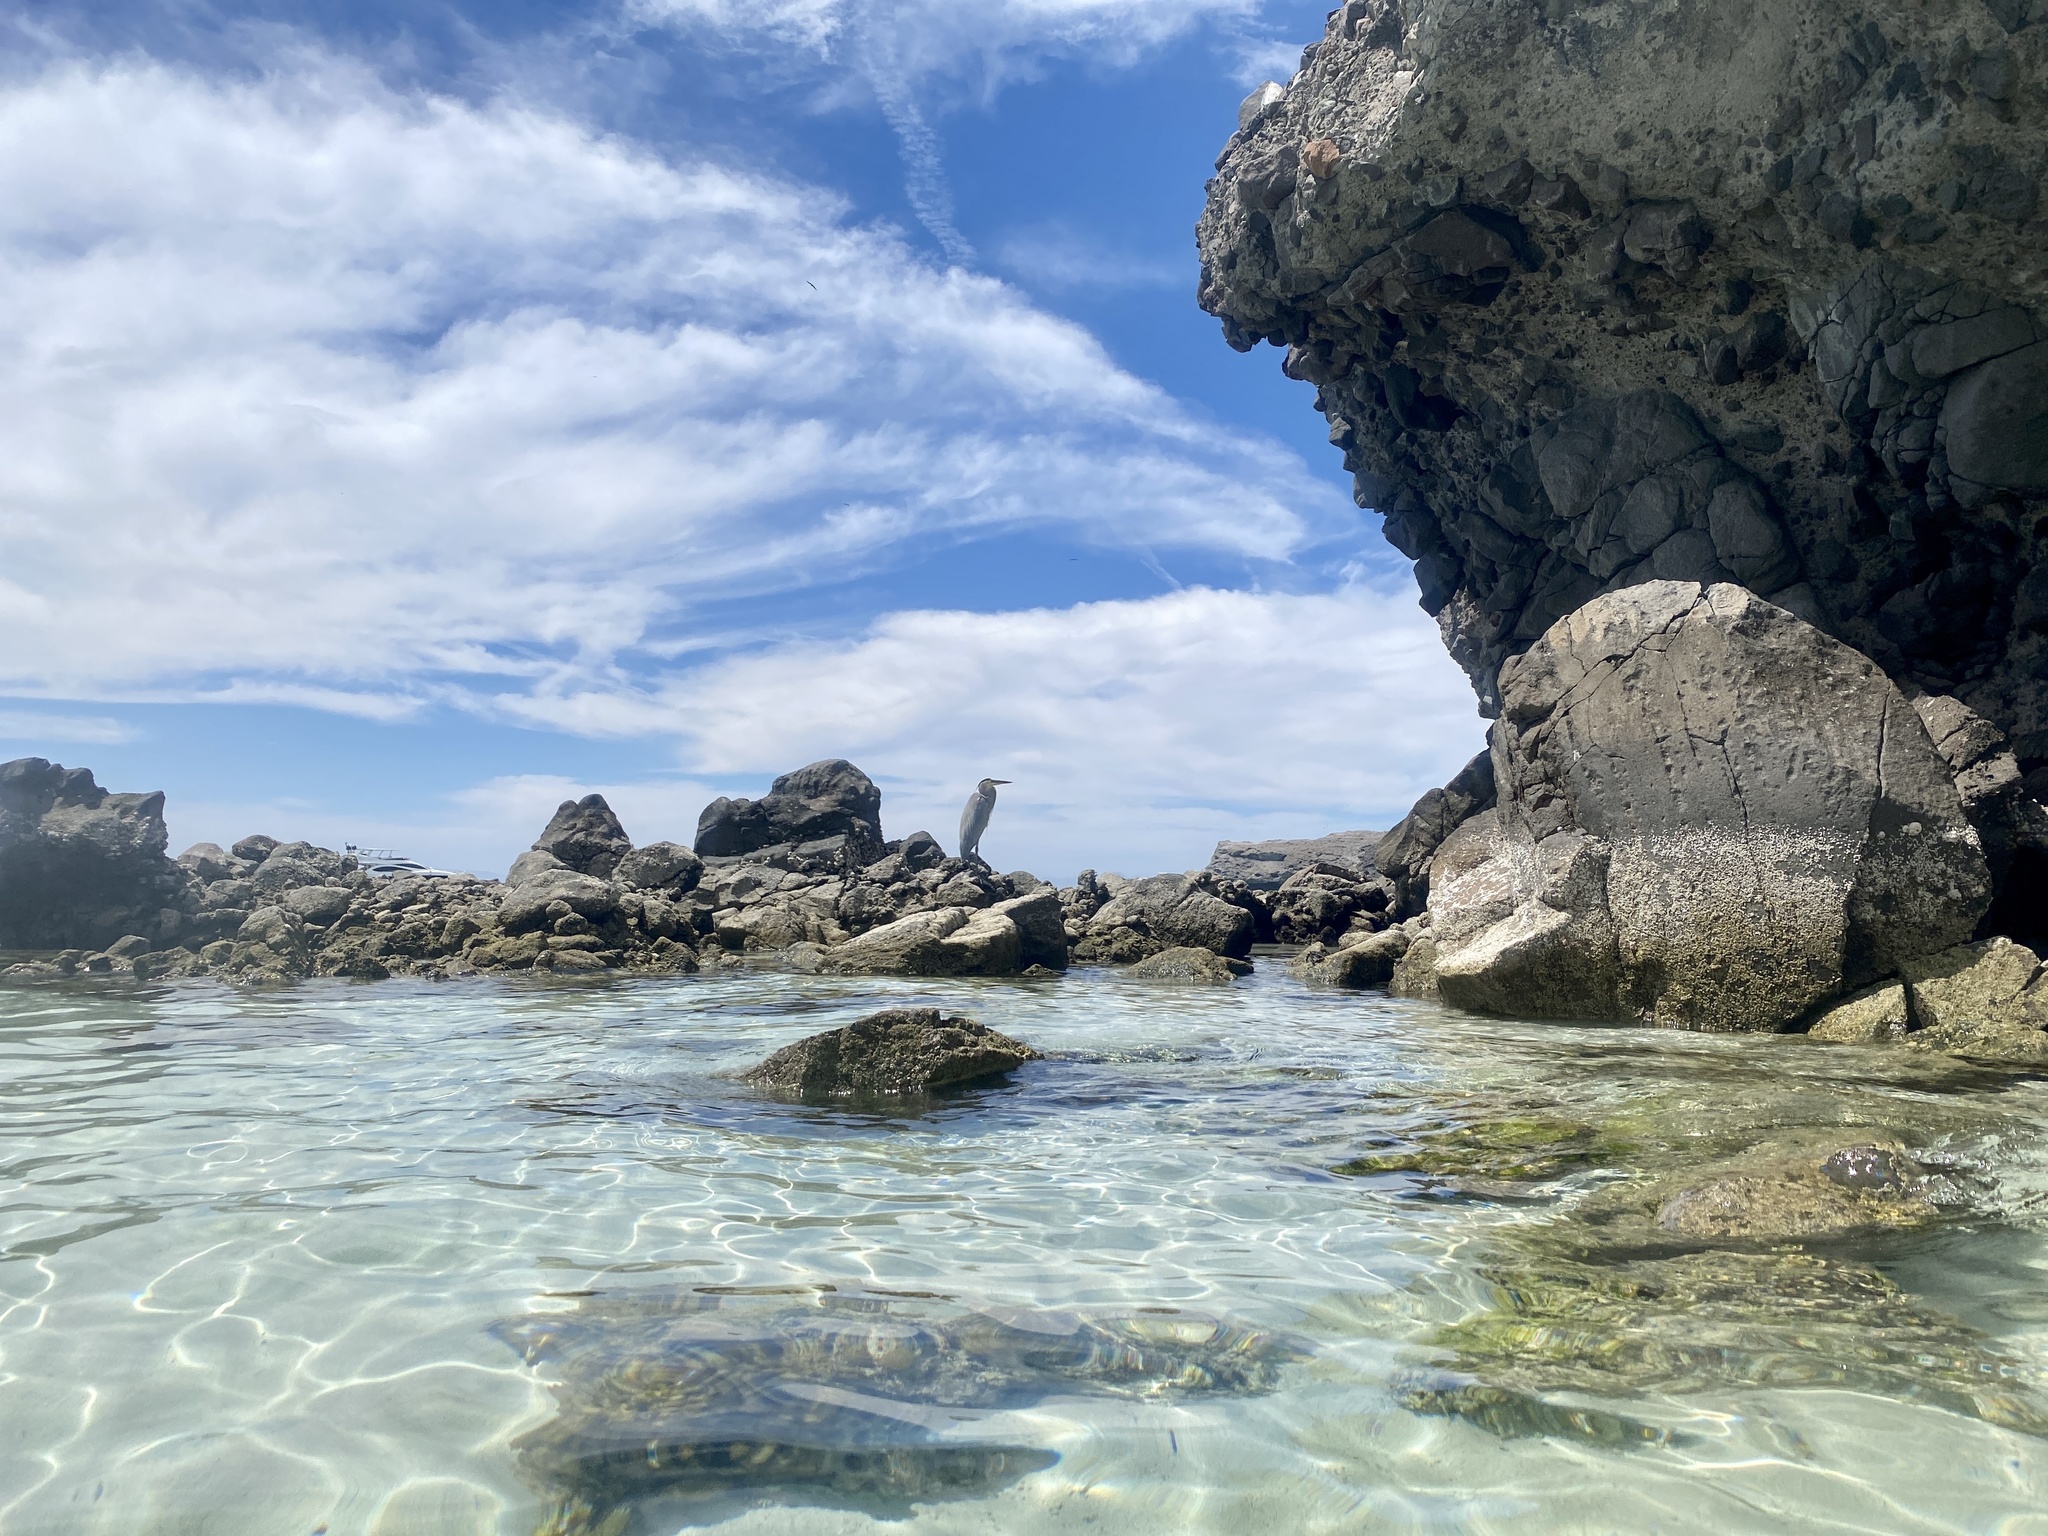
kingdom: Animalia
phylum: Chordata
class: Aves
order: Pelecaniformes
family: Ardeidae
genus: Ardea
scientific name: Ardea herodias
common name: Great blue heron
